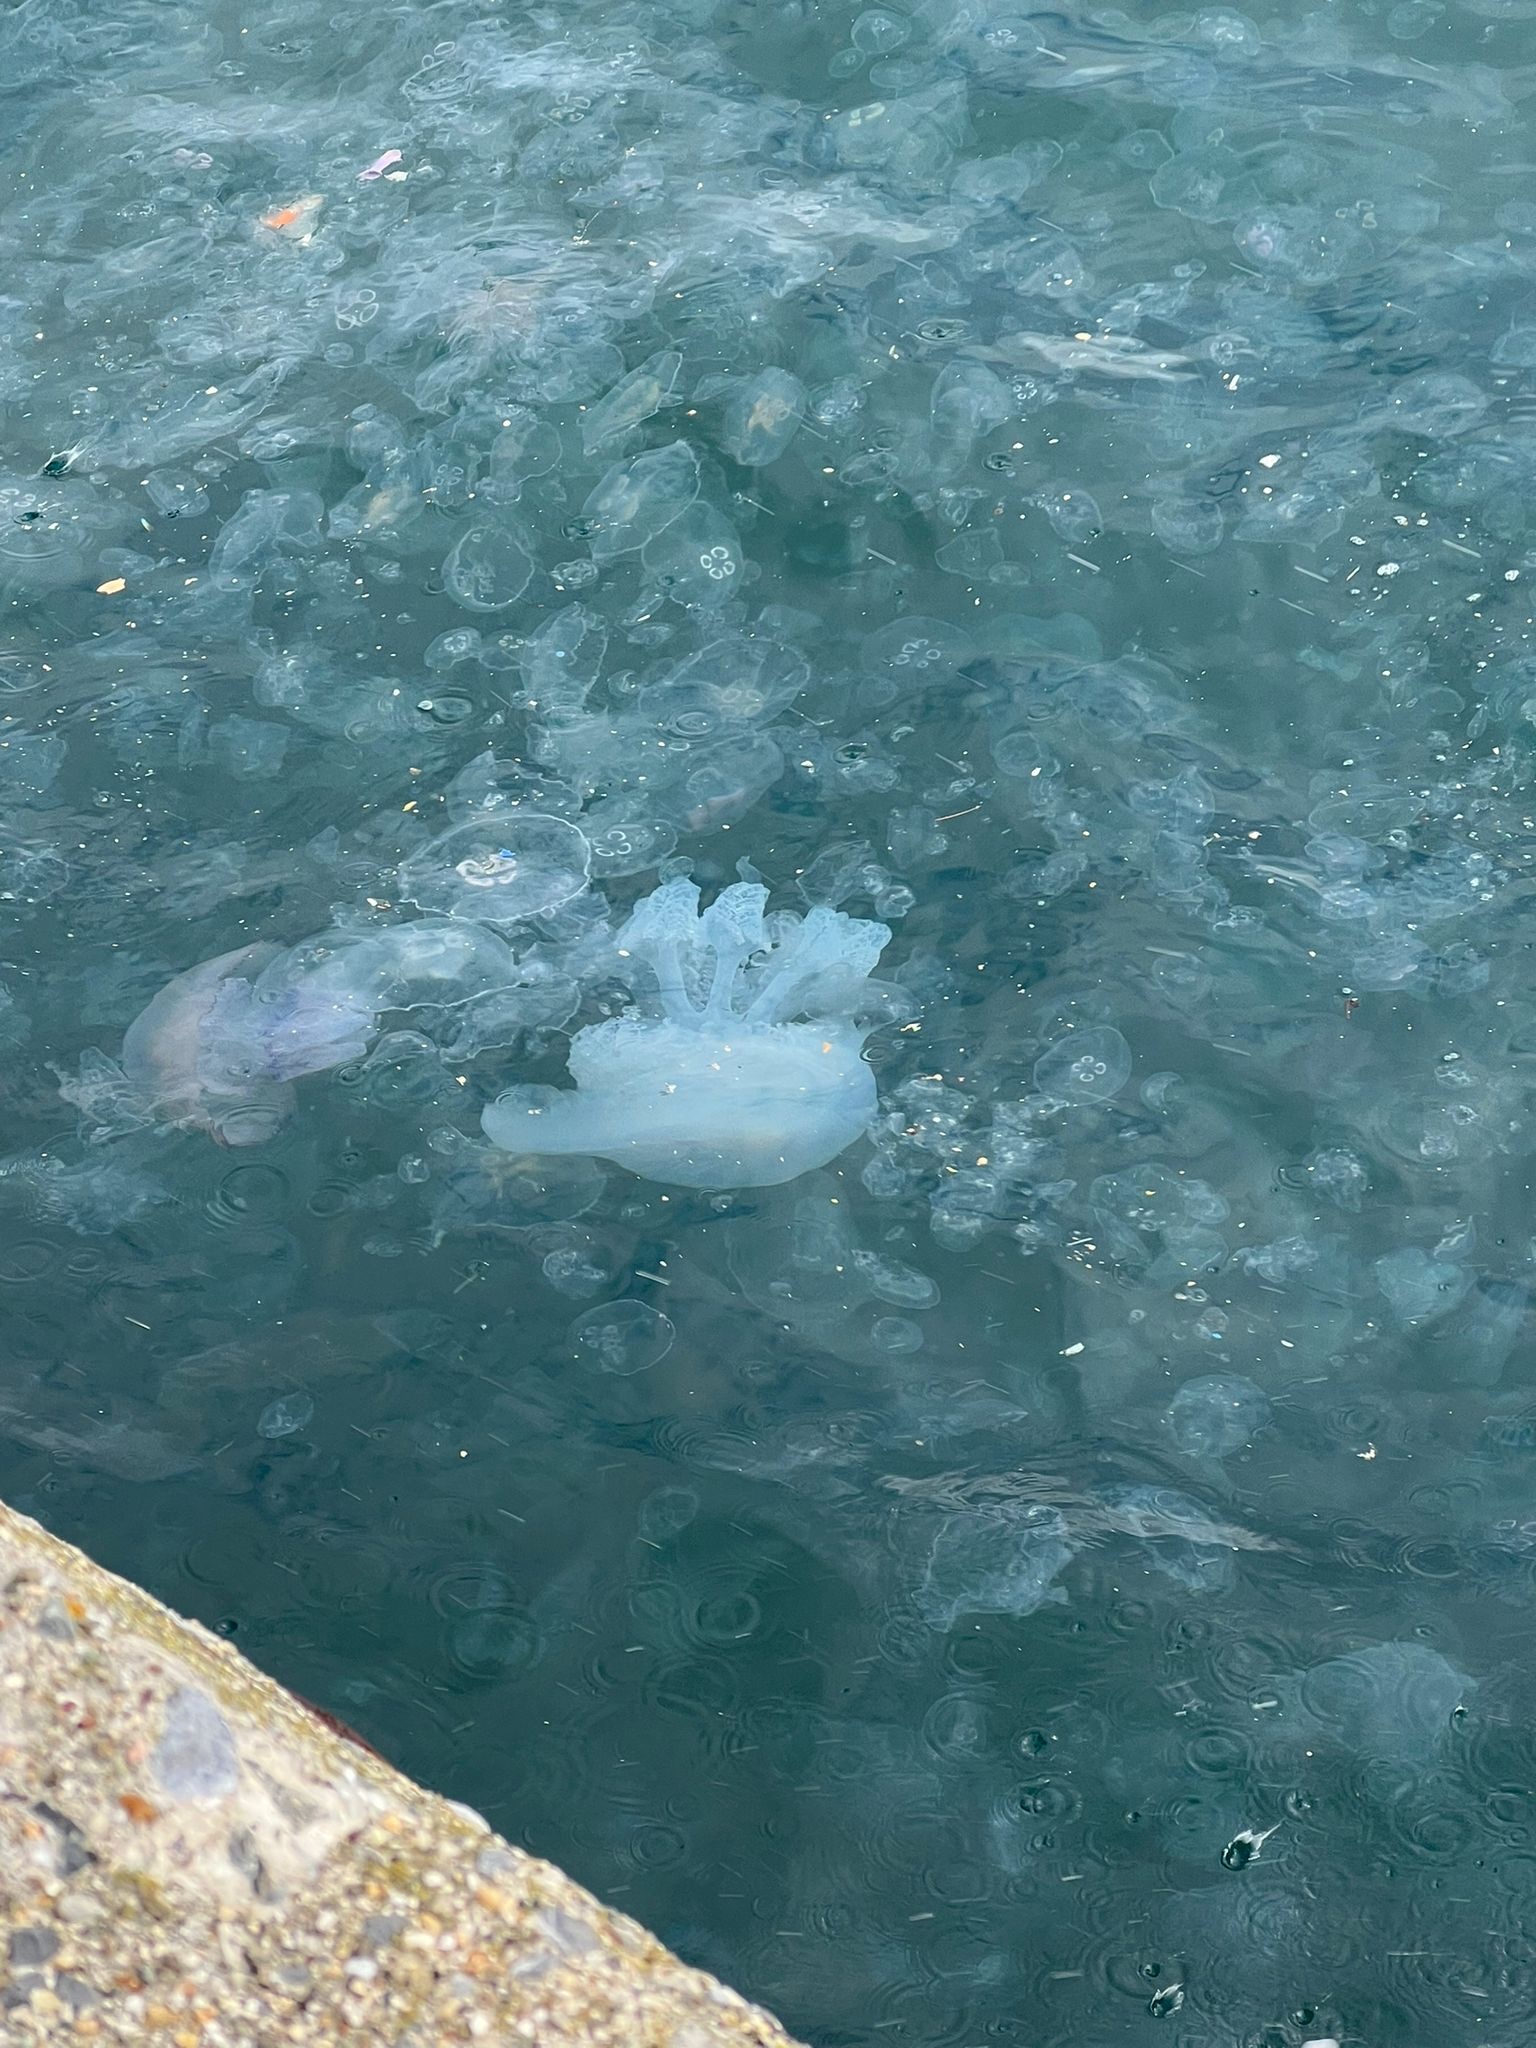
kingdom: Animalia
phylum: Cnidaria
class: Scyphozoa
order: Rhizostomeae
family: Rhizostomatidae
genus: Rhizostoma
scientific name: Rhizostoma pulmo
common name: Barrel jellyfish
